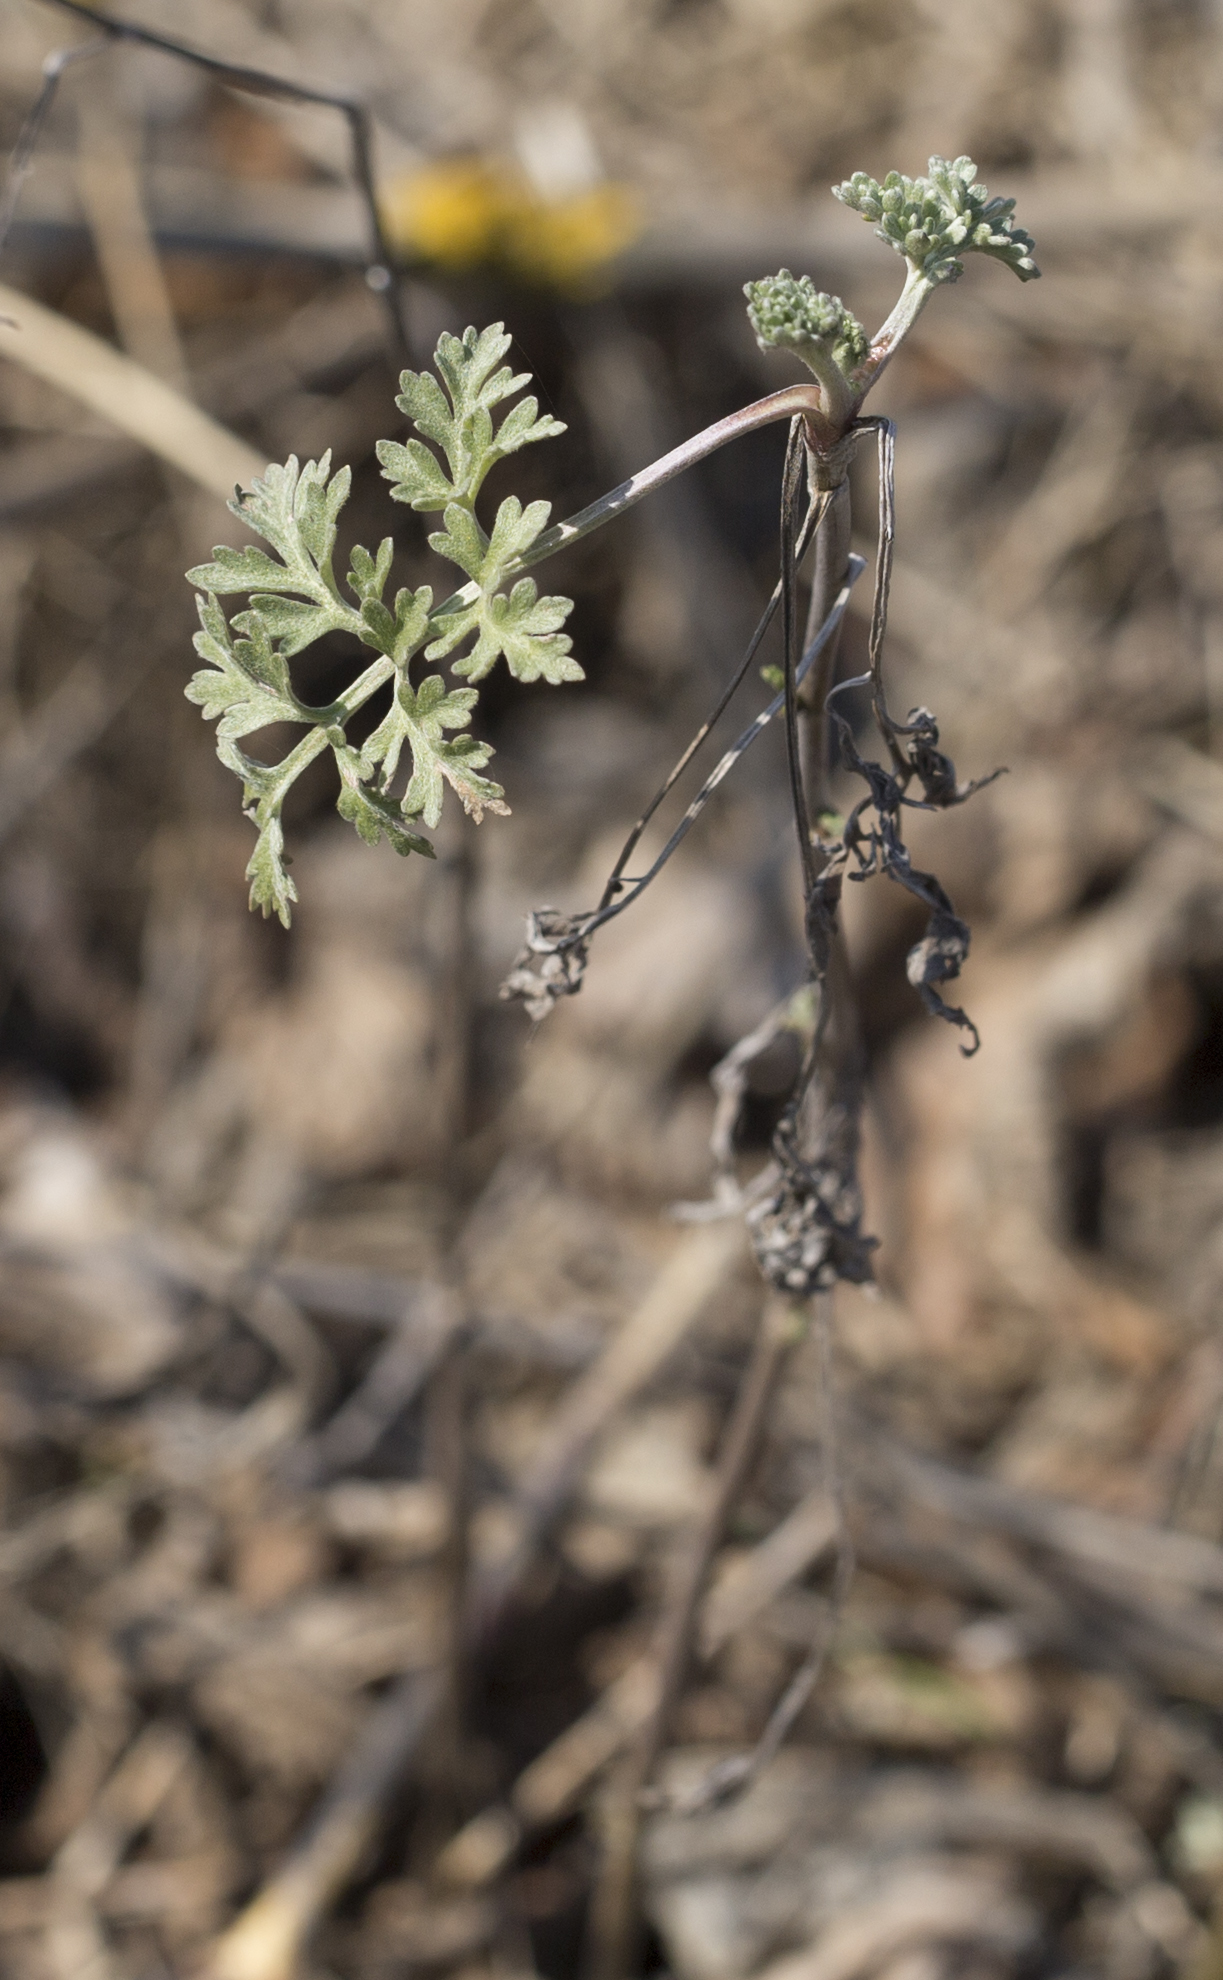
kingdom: Plantae
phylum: Tracheophyta
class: Magnoliopsida
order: Asterales
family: Asteraceae
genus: Artemisia
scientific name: Artemisia absinthium
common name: Wormwood
